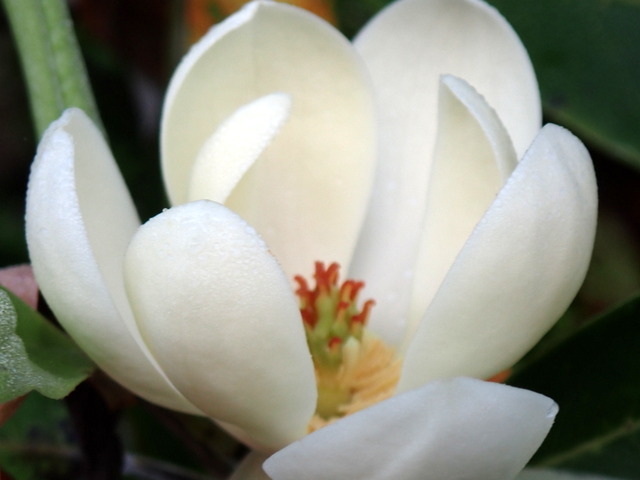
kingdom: Plantae
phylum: Tracheophyta
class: Magnoliopsida
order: Magnoliales
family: Magnoliaceae
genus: Magnolia
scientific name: Magnolia virginiana
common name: Swamp bay
